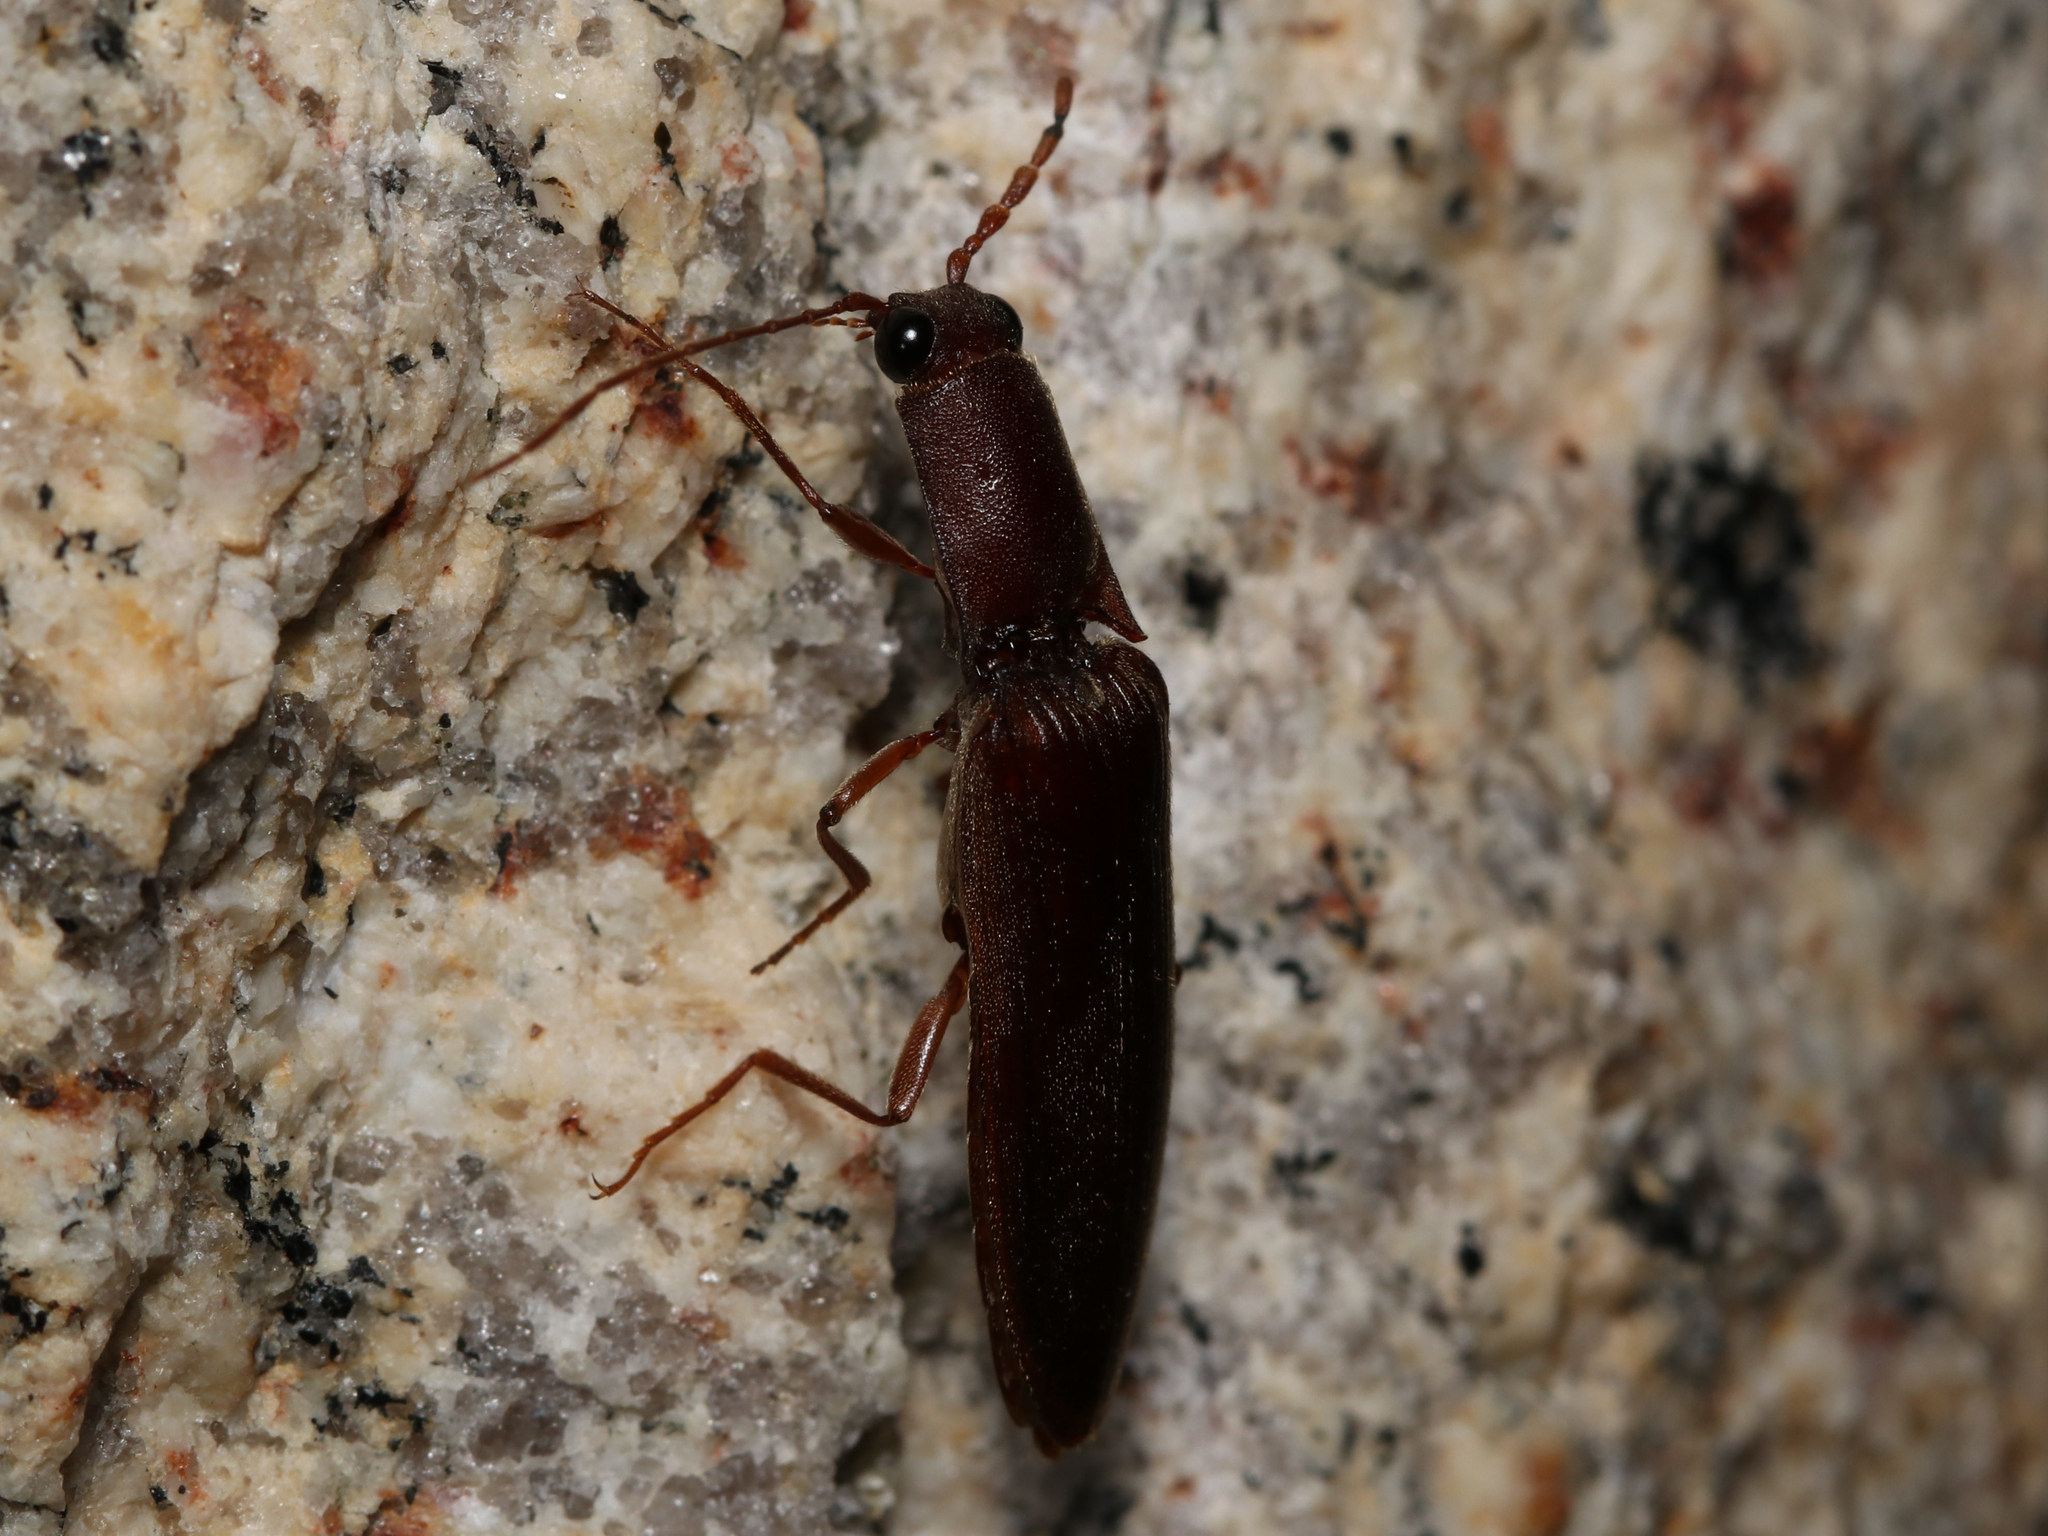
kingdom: Animalia
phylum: Arthropoda
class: Insecta
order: Coleoptera
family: Elateridae
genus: Proludius
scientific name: Proludius pyrros
